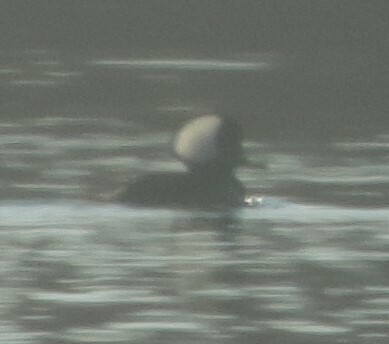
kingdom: Animalia
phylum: Chordata
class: Aves
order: Anseriformes
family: Anatidae
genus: Lophodytes
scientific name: Lophodytes cucullatus
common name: Hooded merganser
